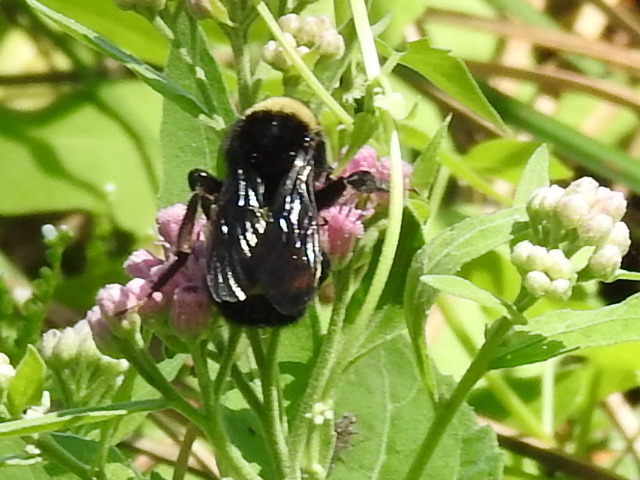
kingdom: Animalia
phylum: Arthropoda
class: Insecta
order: Hymenoptera
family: Apidae
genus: Bombus
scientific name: Bombus pensylvanicus
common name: Bumble bee
